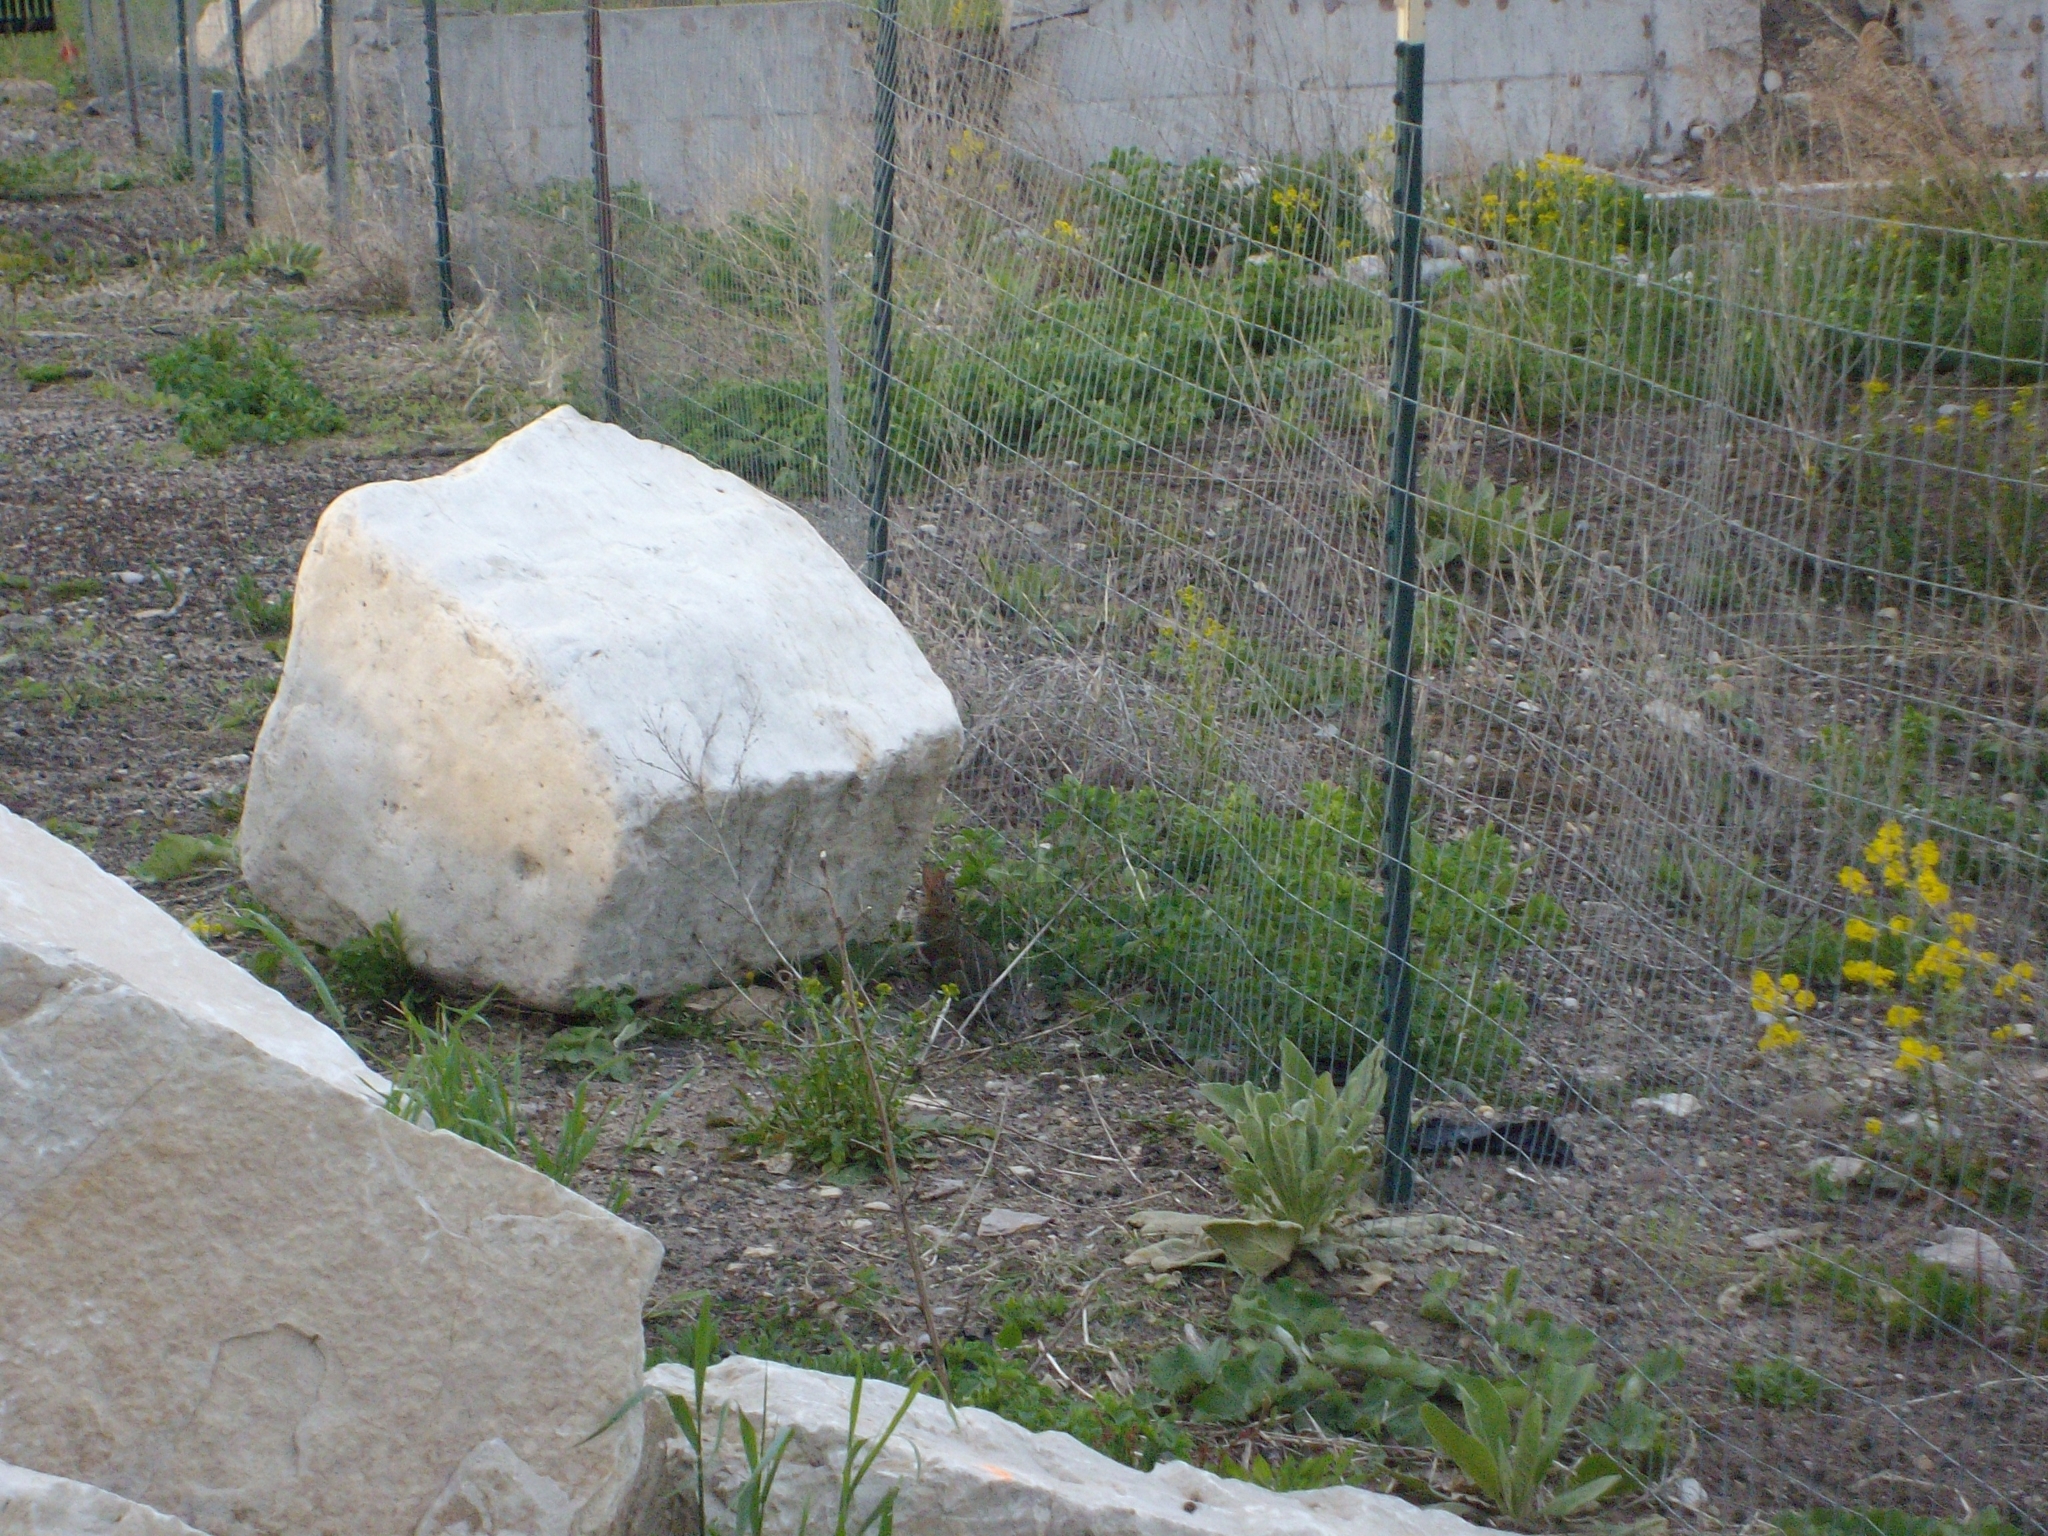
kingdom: Animalia
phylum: Chordata
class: Mammalia
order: Lagomorpha
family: Leporidae
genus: Sylvilagus
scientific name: Sylvilagus floridanus
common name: Eastern cottontail
